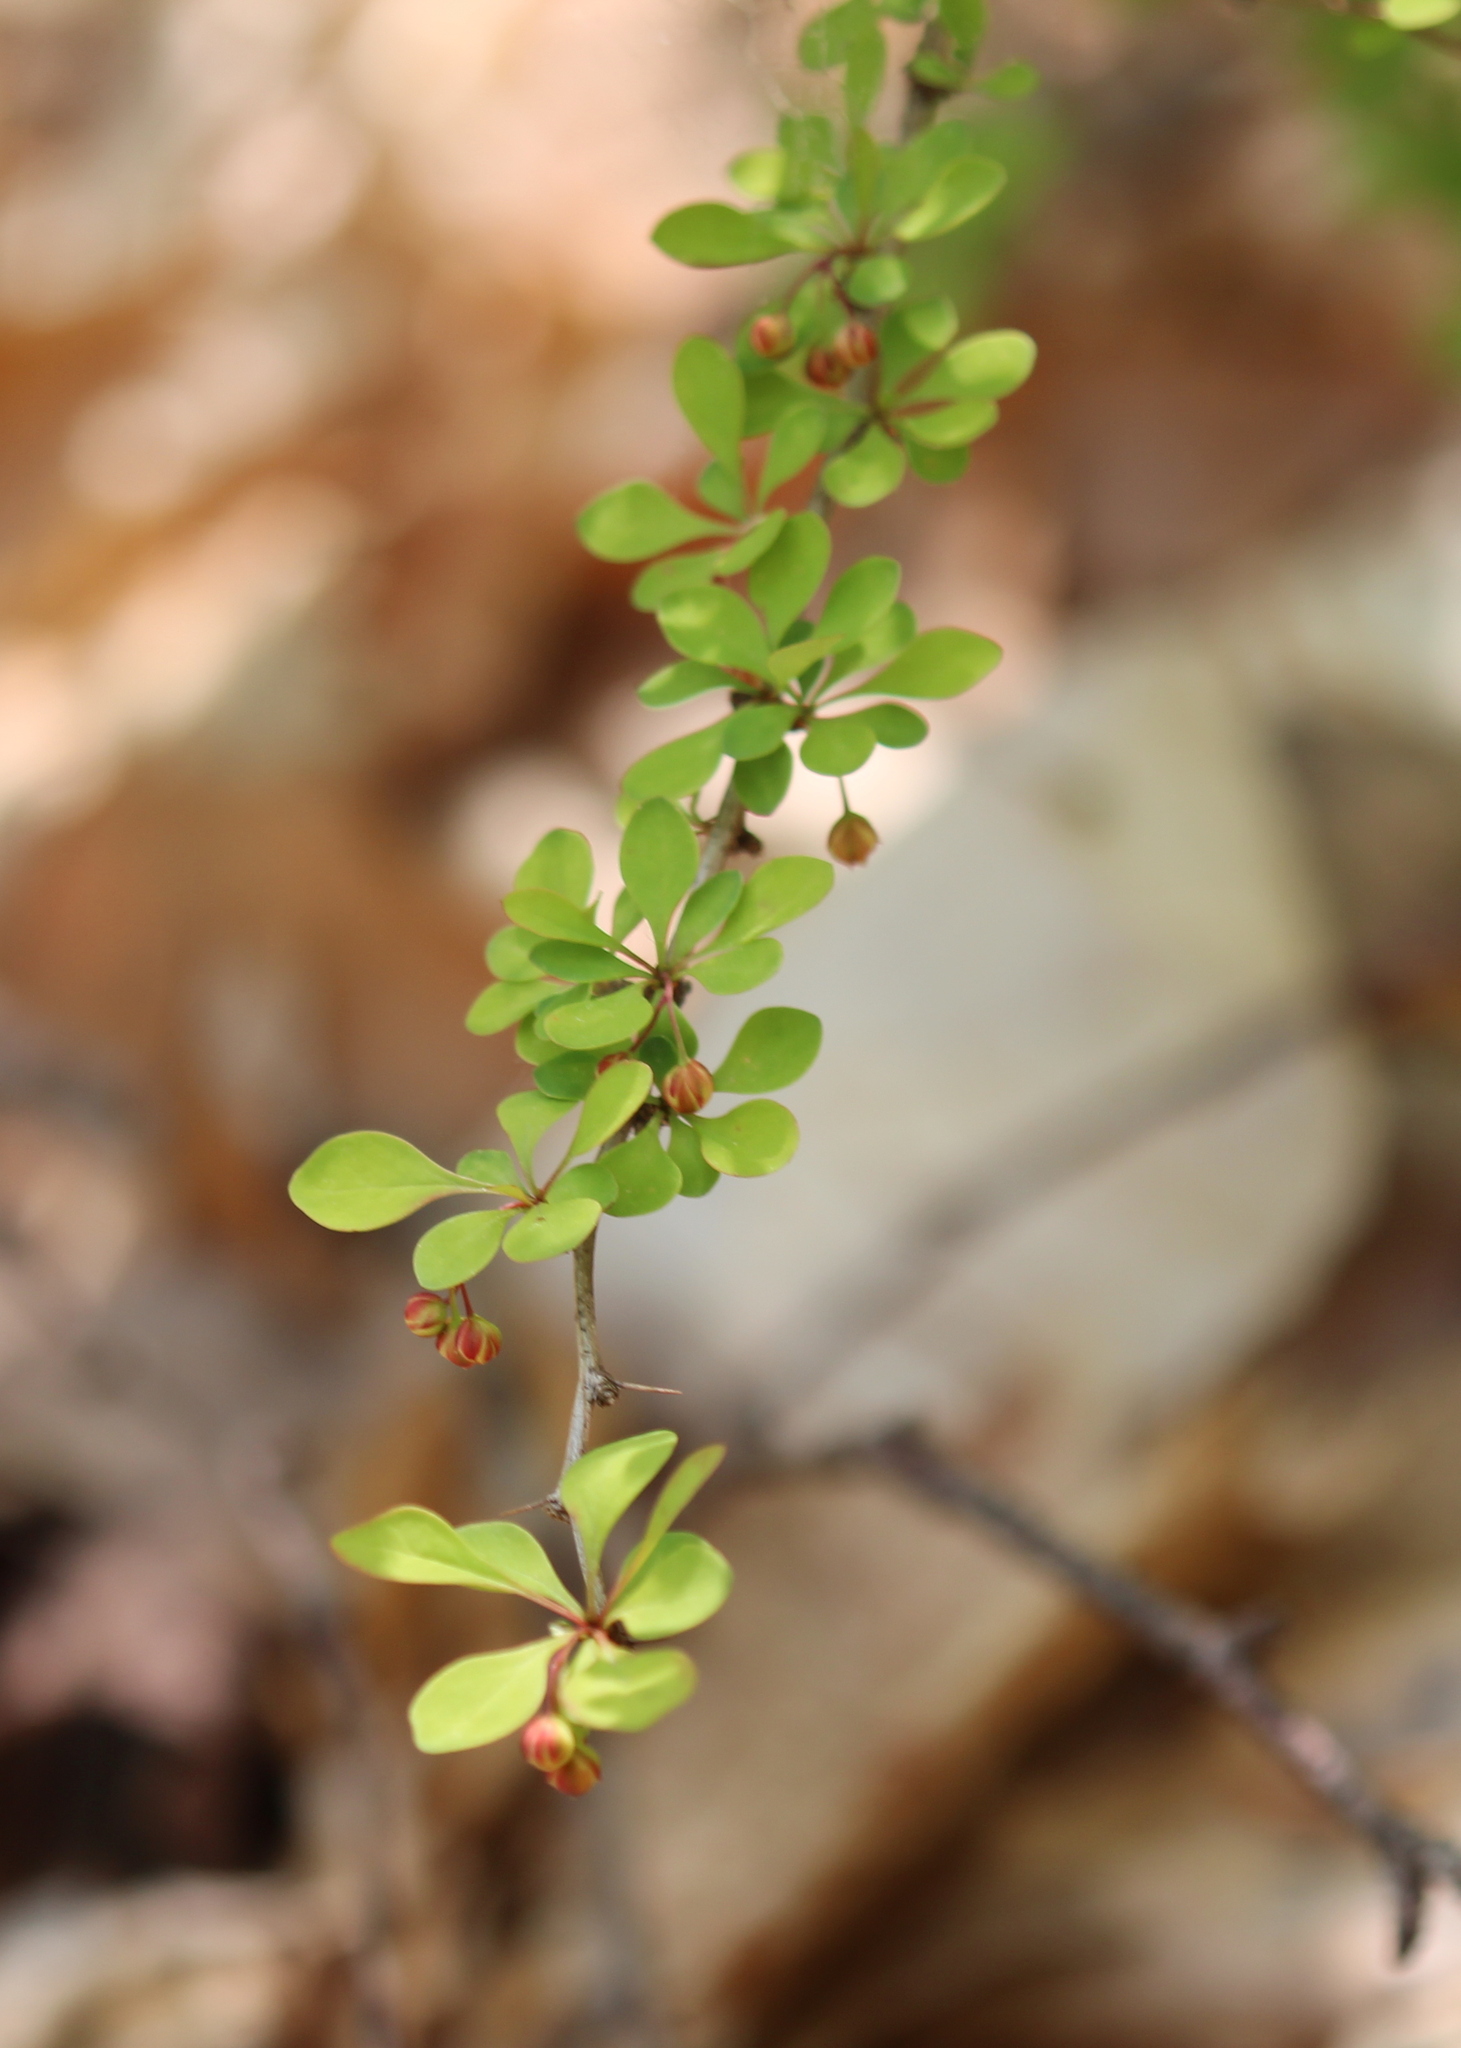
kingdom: Plantae
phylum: Tracheophyta
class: Magnoliopsida
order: Ranunculales
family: Berberidaceae
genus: Berberis
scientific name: Berberis thunbergii
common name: Japanese barberry
